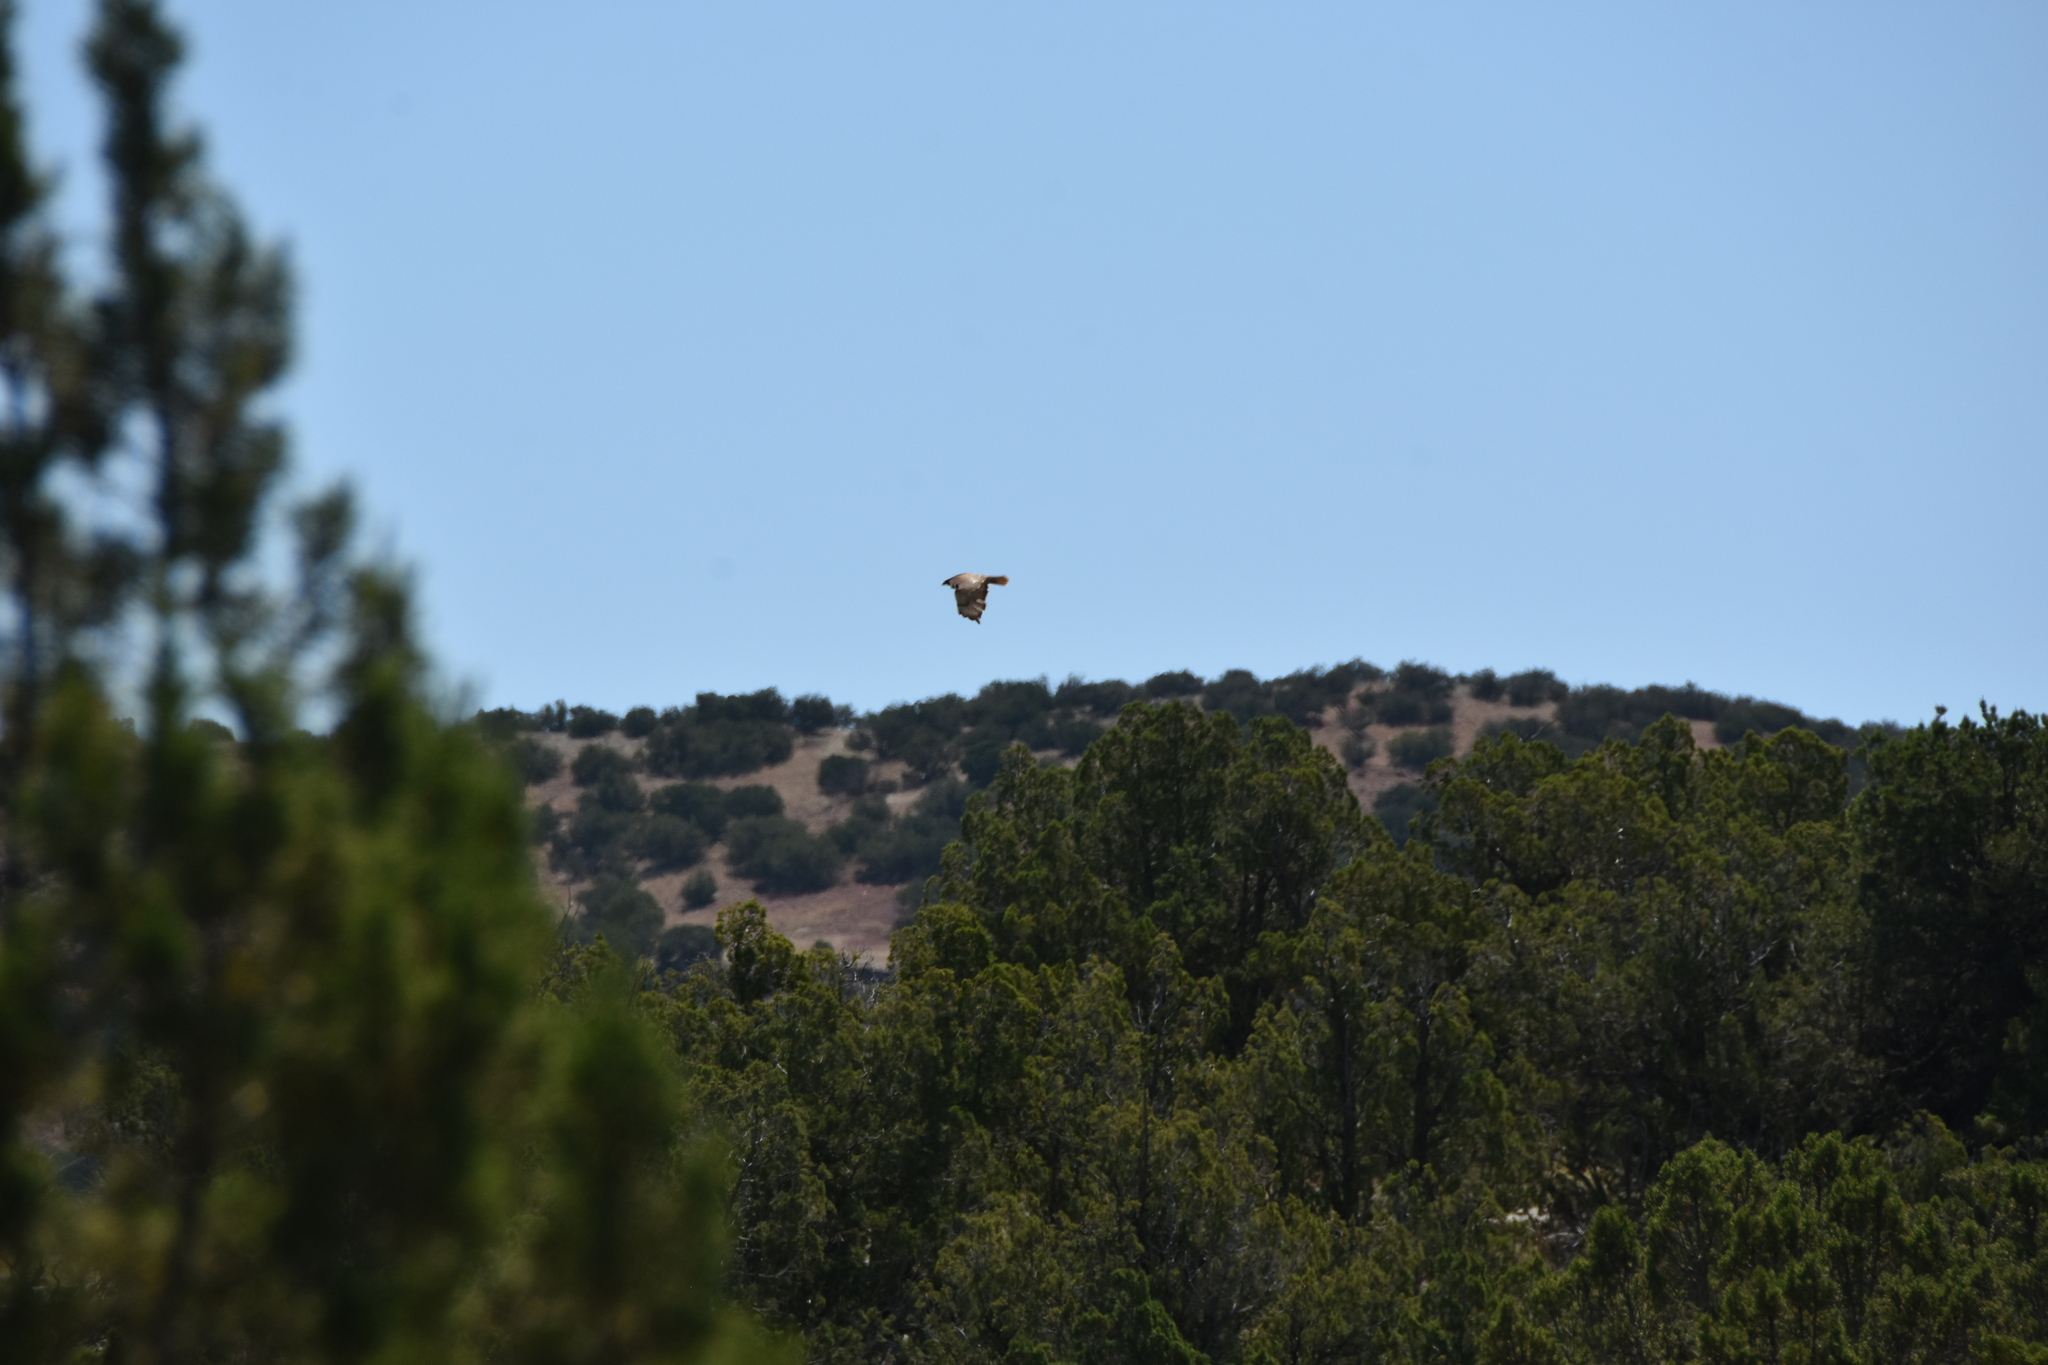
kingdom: Animalia
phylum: Chordata
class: Aves
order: Accipitriformes
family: Accipitridae
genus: Buteo
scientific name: Buteo jamaicensis
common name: Red-tailed hawk
